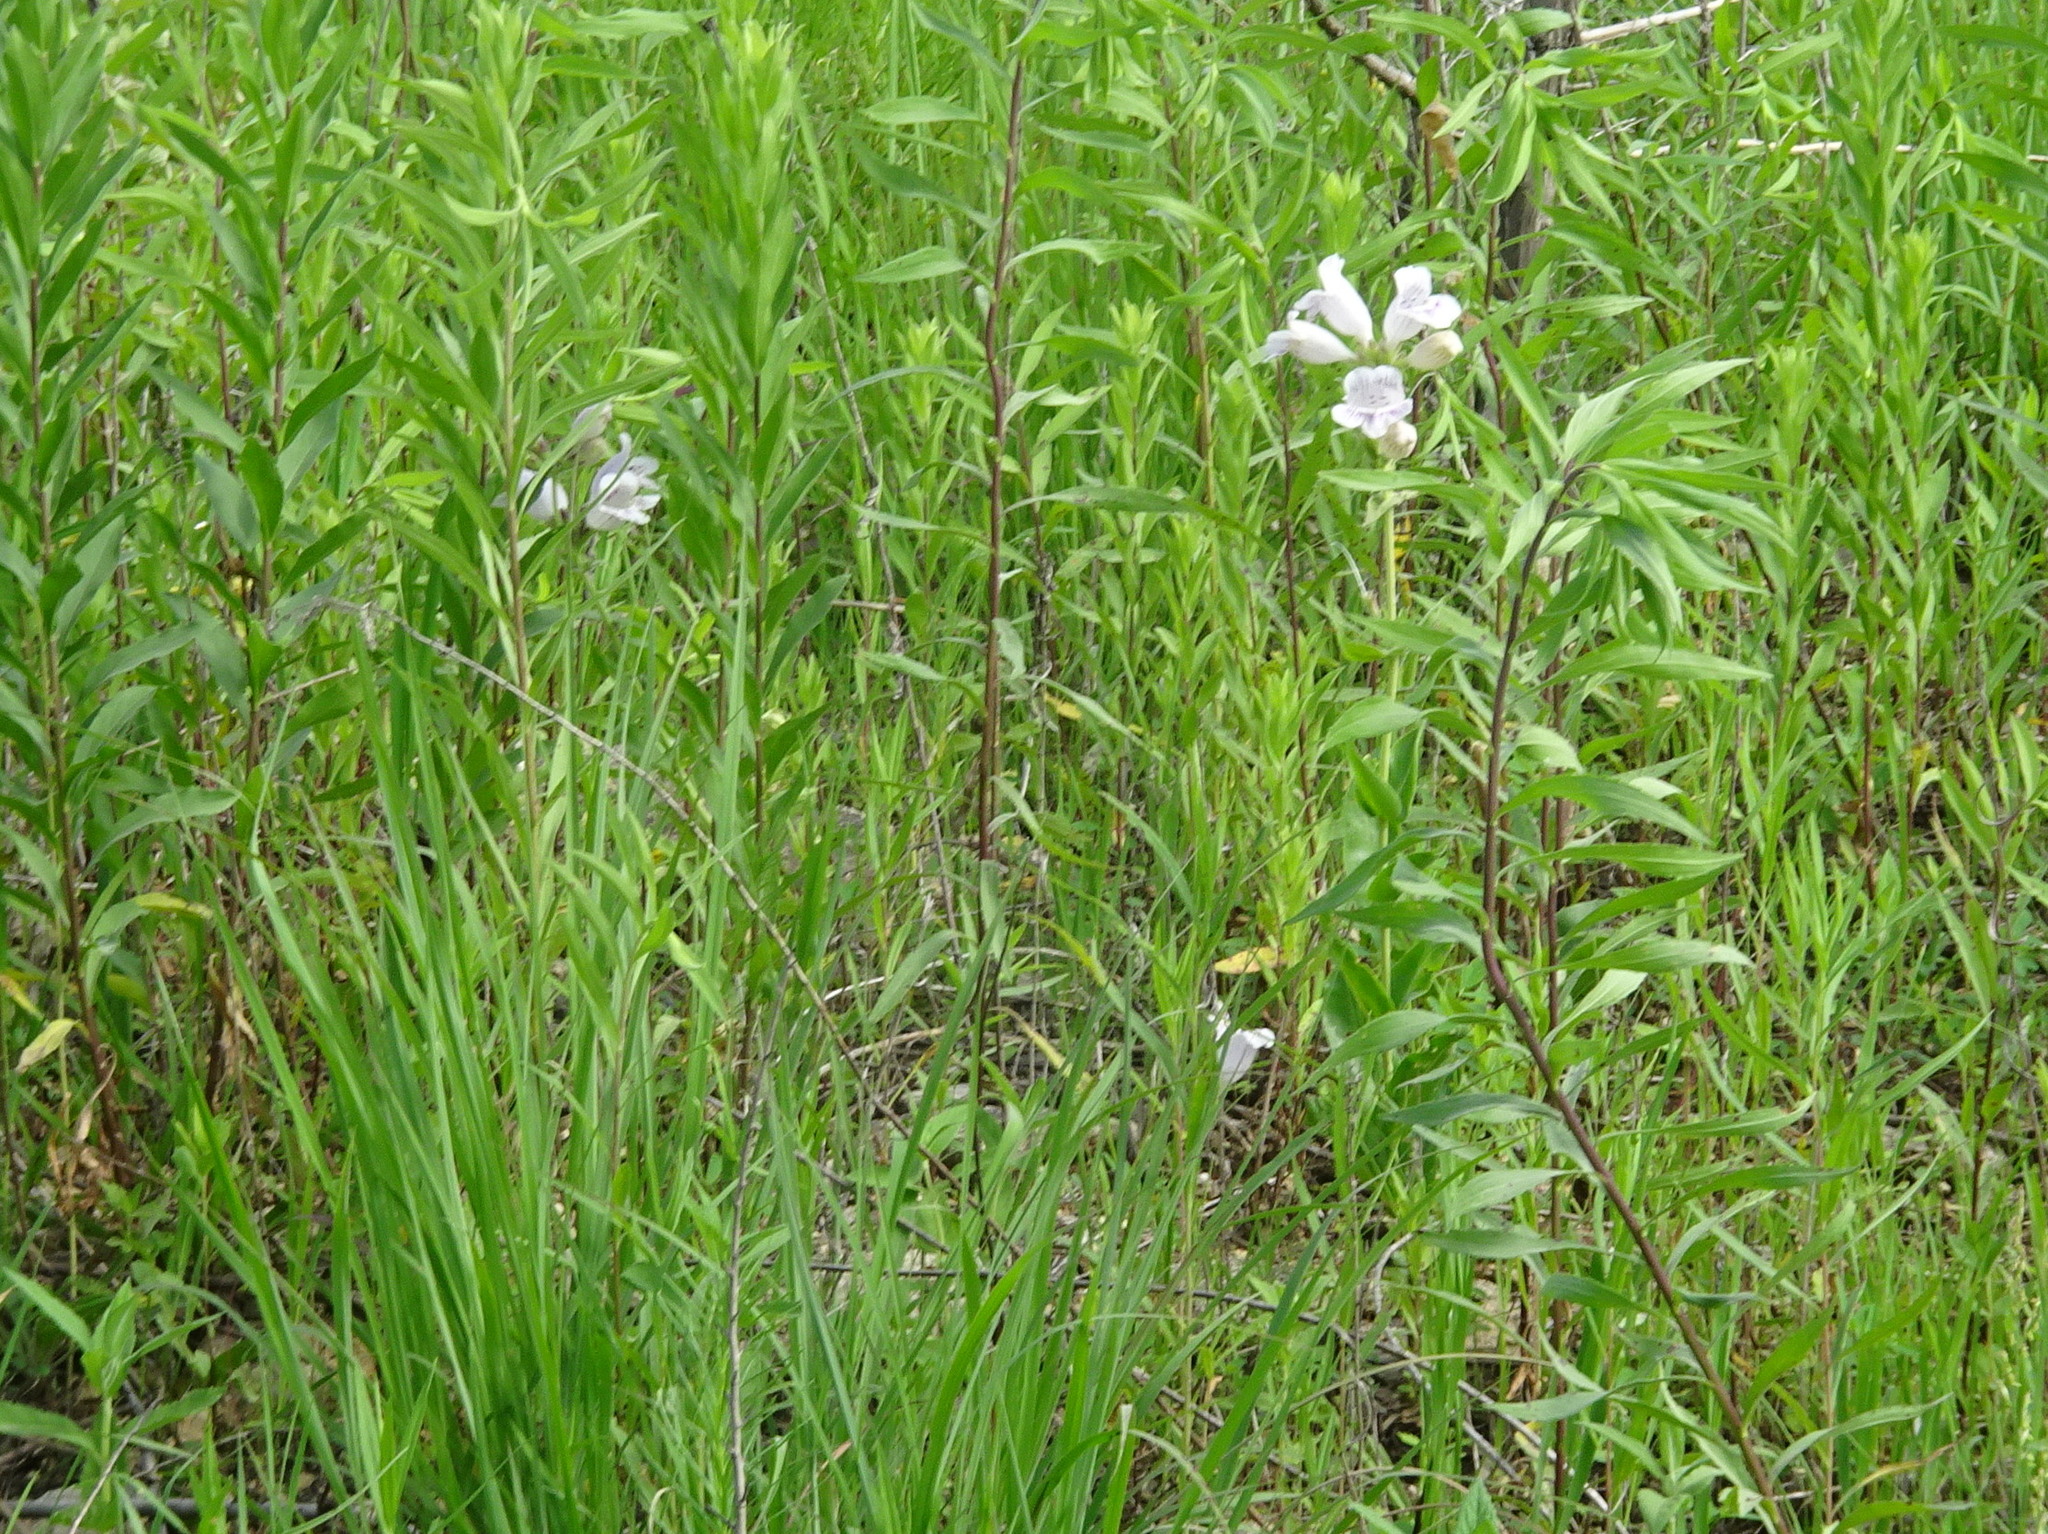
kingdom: Plantae
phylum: Tracheophyta
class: Magnoliopsida
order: Lamiales
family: Plantaginaceae
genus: Penstemon
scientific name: Penstemon cobaea
